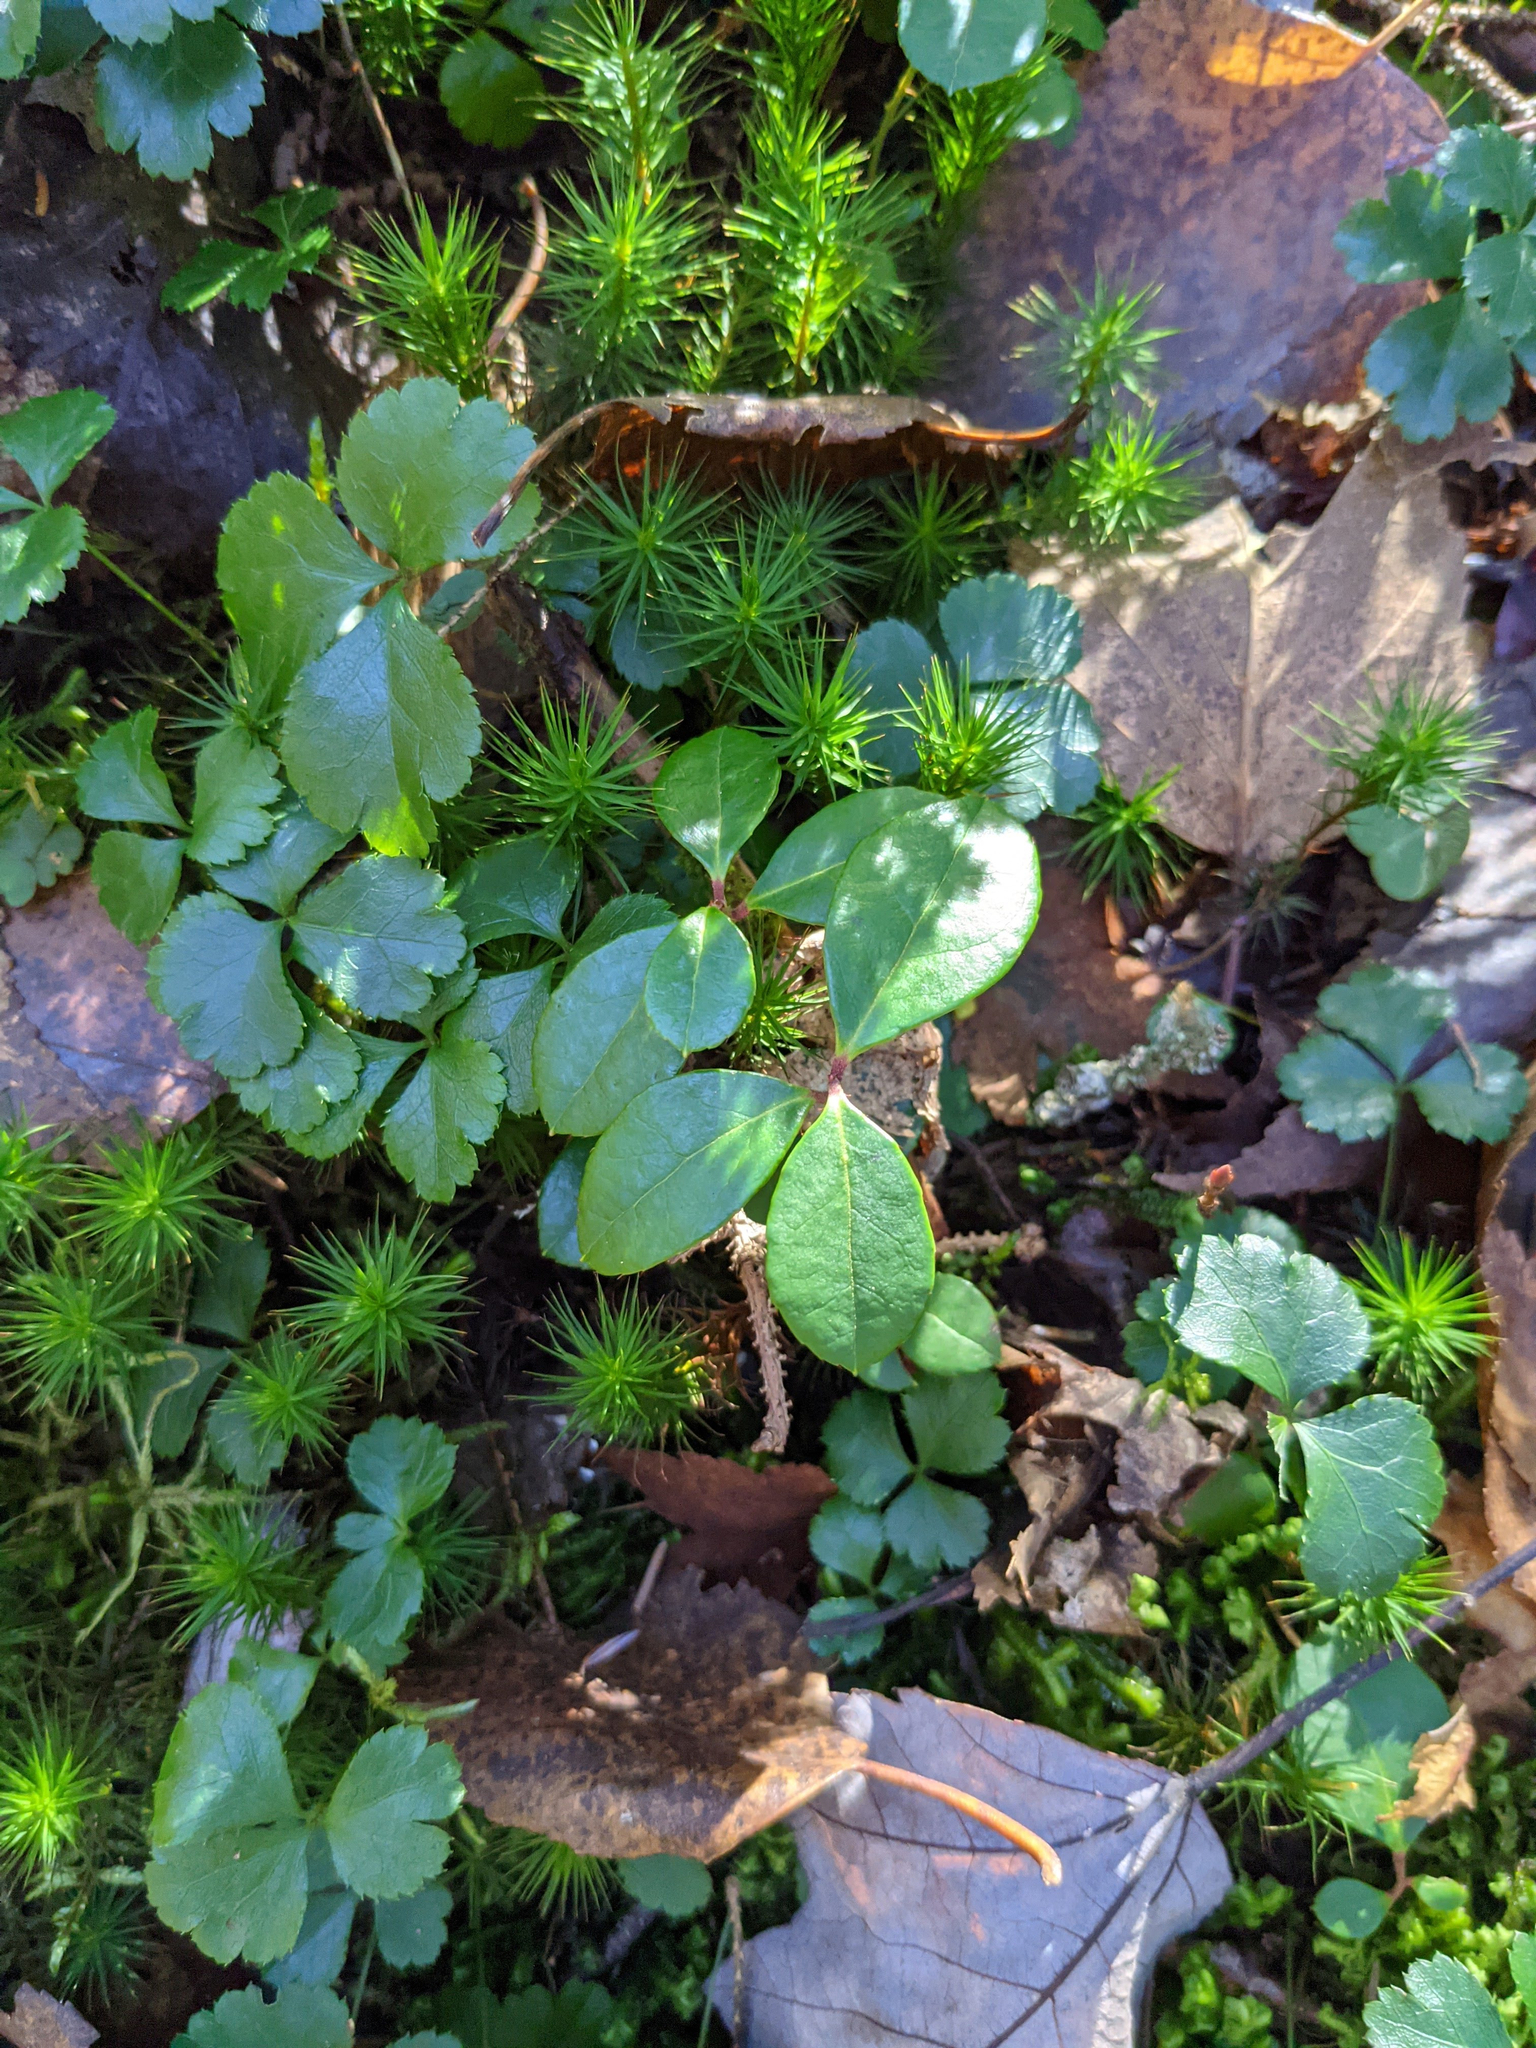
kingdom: Plantae
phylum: Tracheophyta
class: Magnoliopsida
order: Ericales
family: Ericaceae
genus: Gaultheria
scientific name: Gaultheria procumbens
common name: Checkerberry
